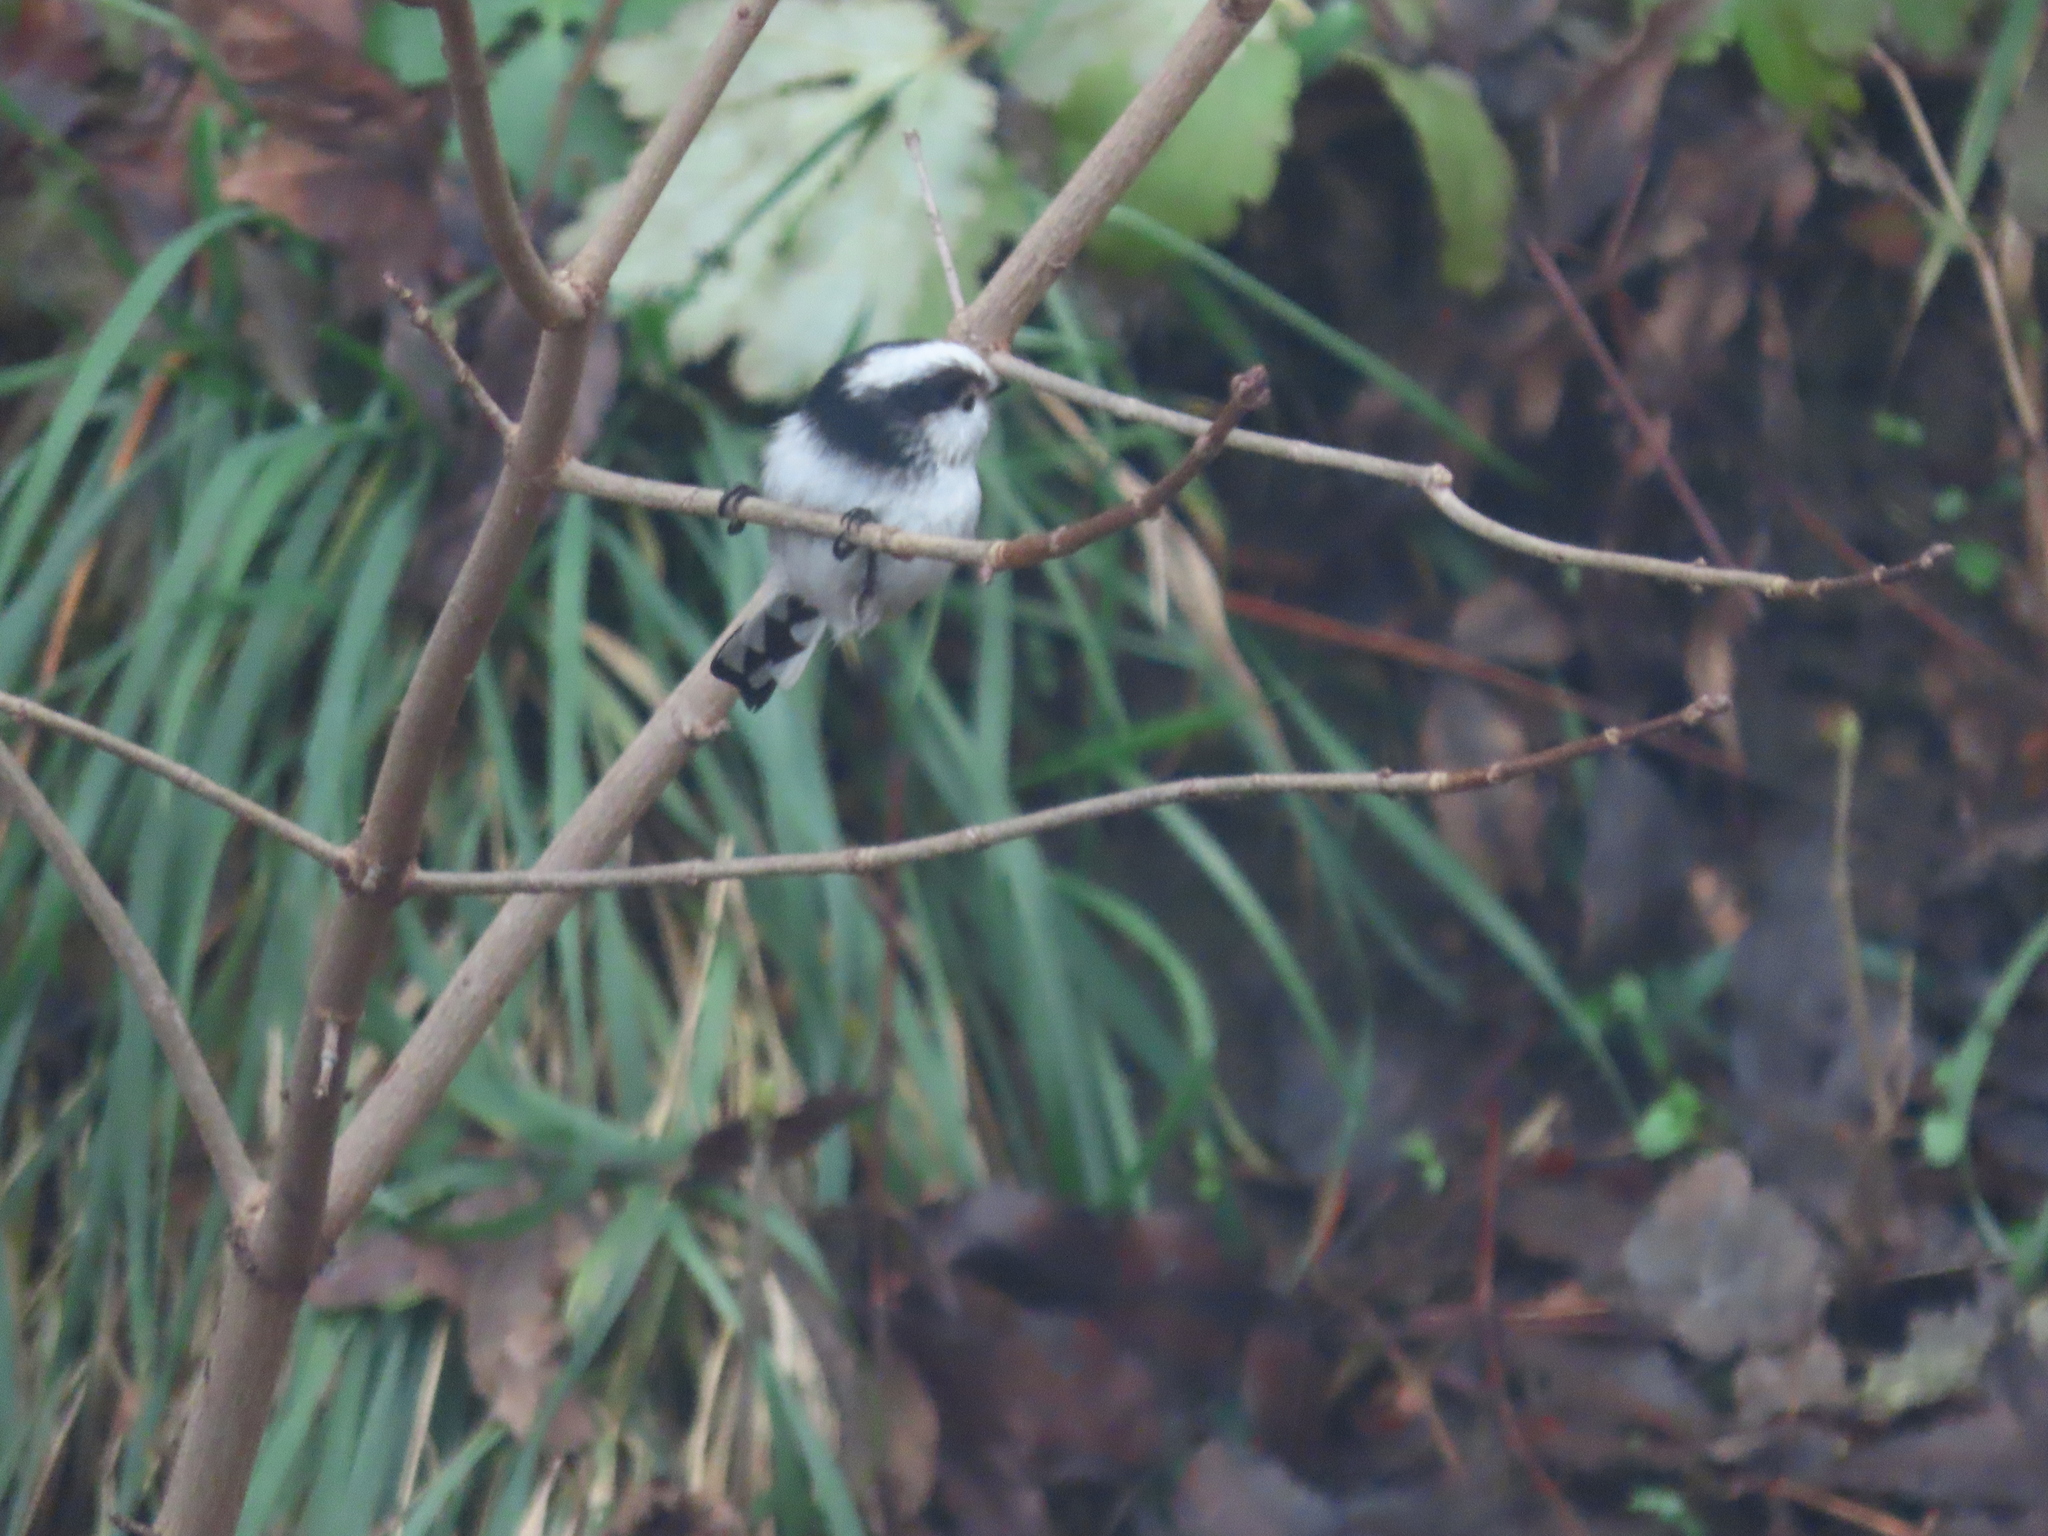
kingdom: Animalia
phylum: Chordata
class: Aves
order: Passeriformes
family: Aegithalidae
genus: Aegithalos
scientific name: Aegithalos caudatus
